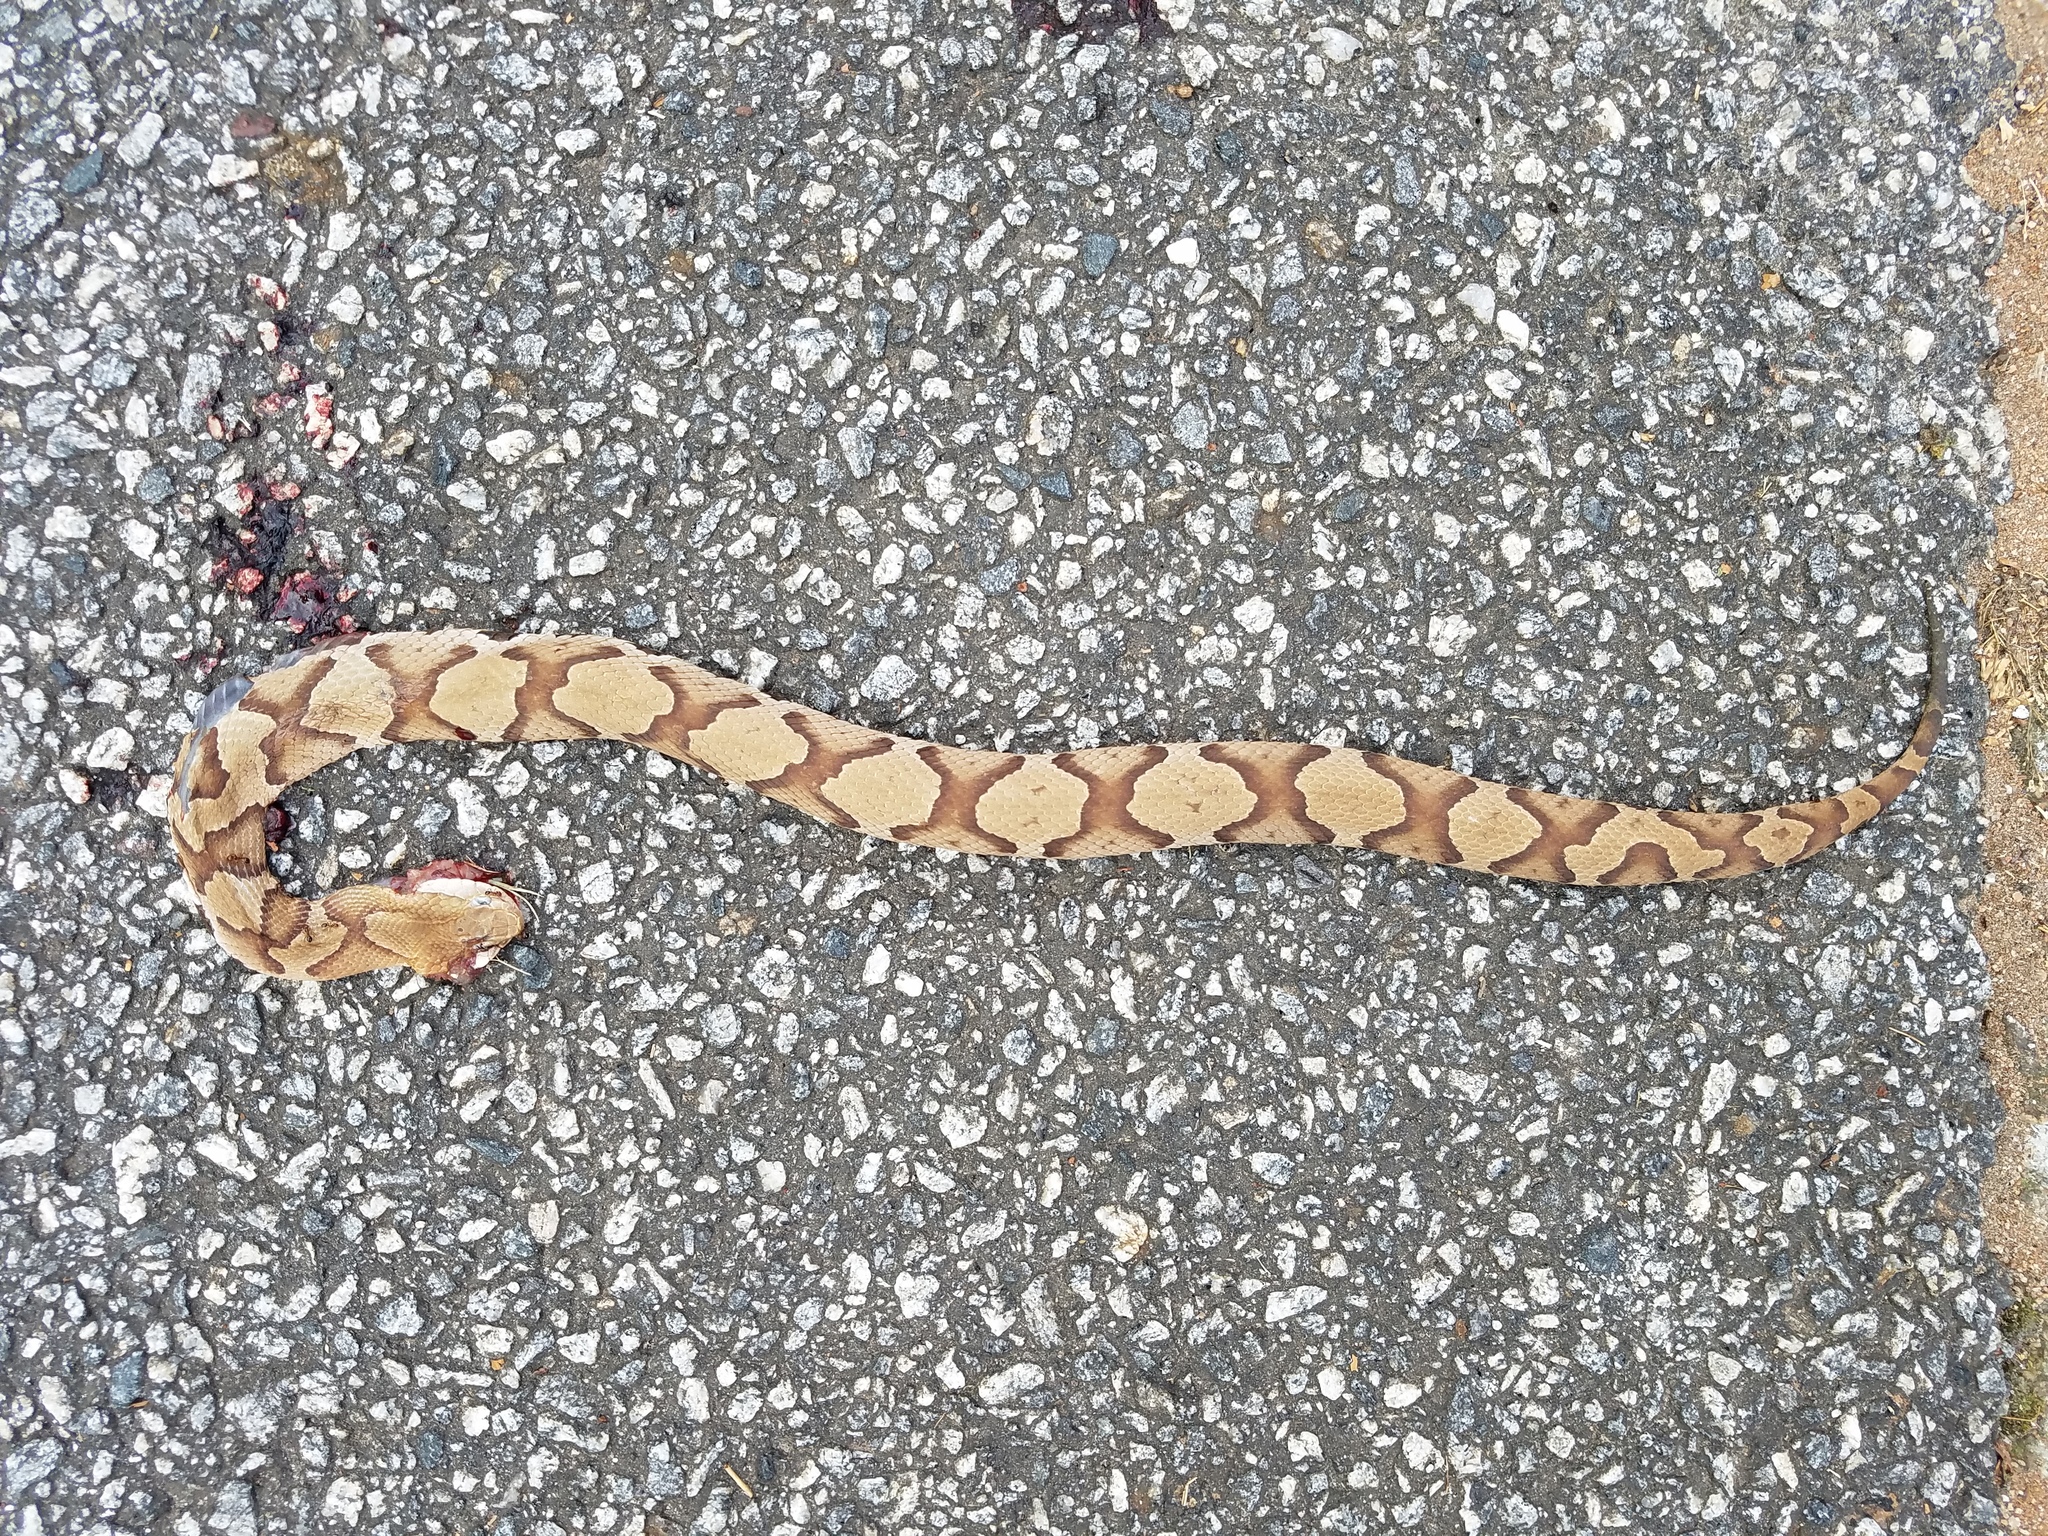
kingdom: Animalia
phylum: Chordata
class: Squamata
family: Viperidae
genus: Agkistrodon
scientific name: Agkistrodon contortrix
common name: Northern copperhead
